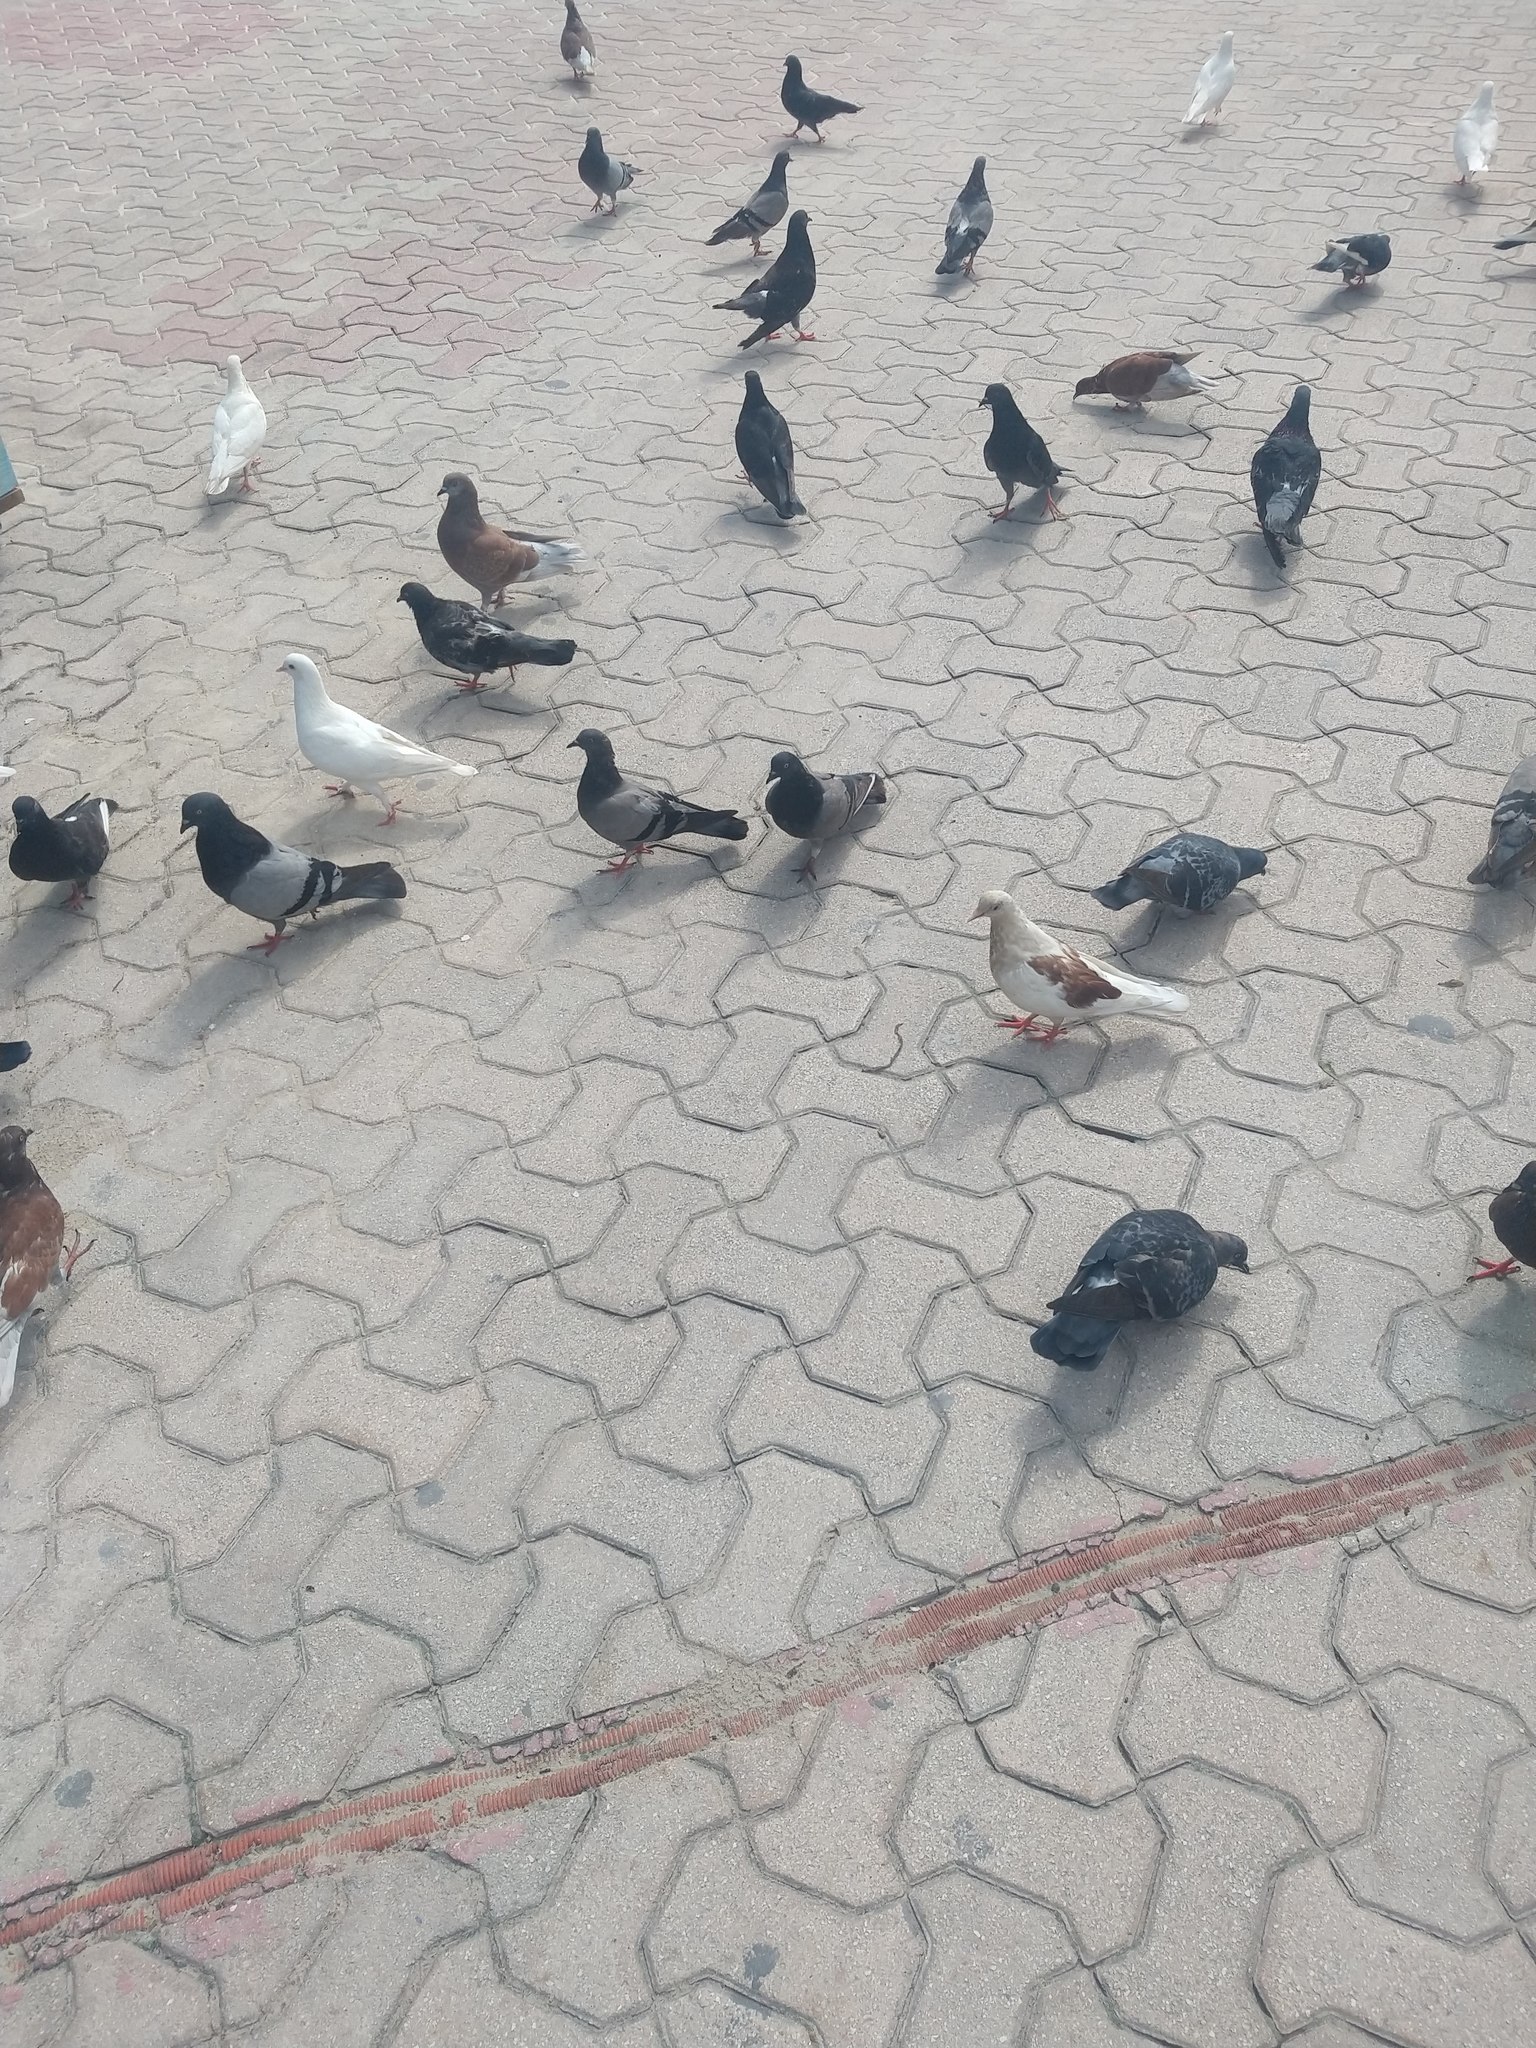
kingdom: Animalia
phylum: Chordata
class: Aves
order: Columbiformes
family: Columbidae
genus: Columba
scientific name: Columba livia
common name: Rock pigeon
